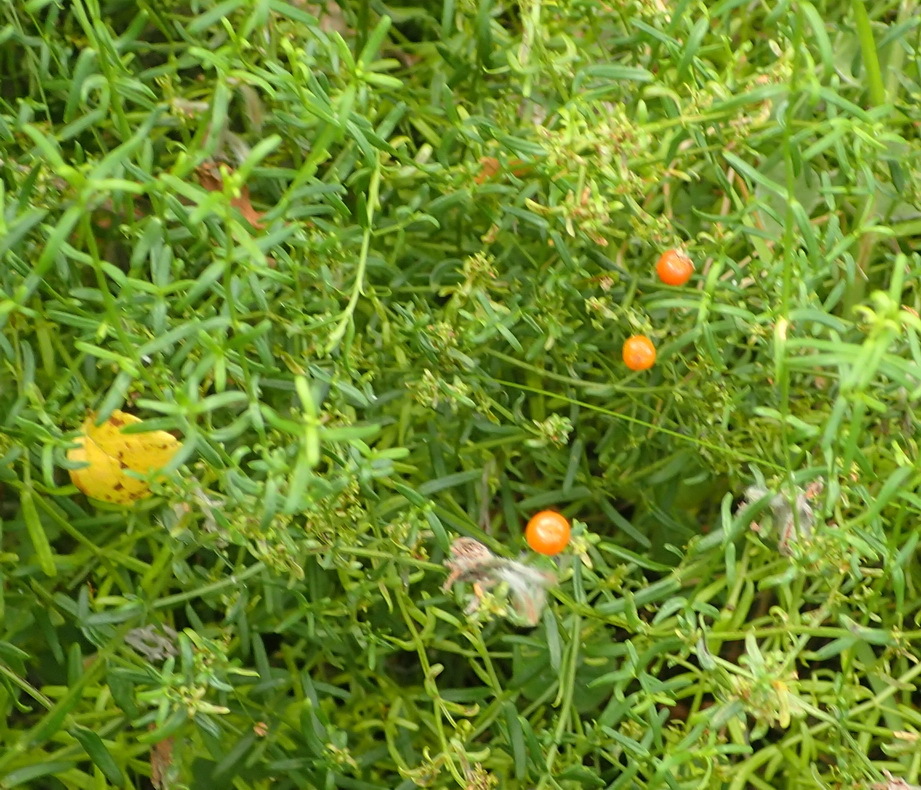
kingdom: Plantae
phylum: Tracheophyta
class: Magnoliopsida
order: Gentianales
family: Gentianaceae
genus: Chironia
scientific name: Chironia baccifera
